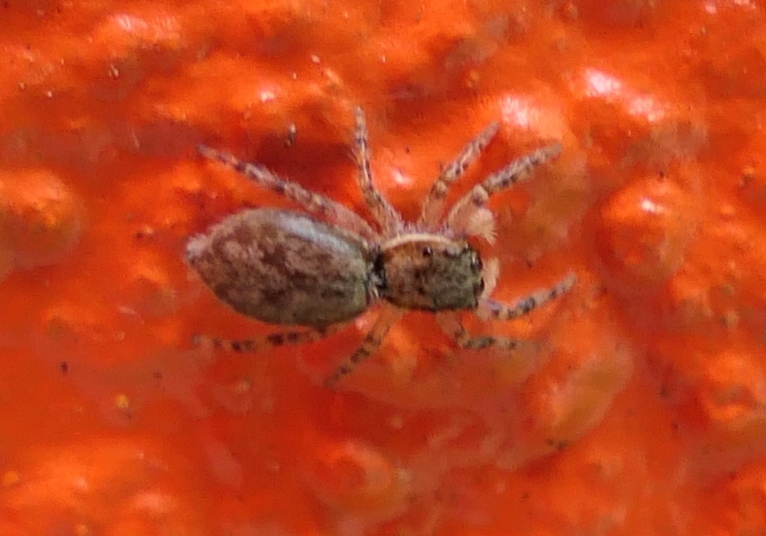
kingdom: Animalia
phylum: Arthropoda
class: Arachnida
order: Araneae
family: Salticidae
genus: Menemerus
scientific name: Menemerus bivittatus
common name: Gray wall jumper
